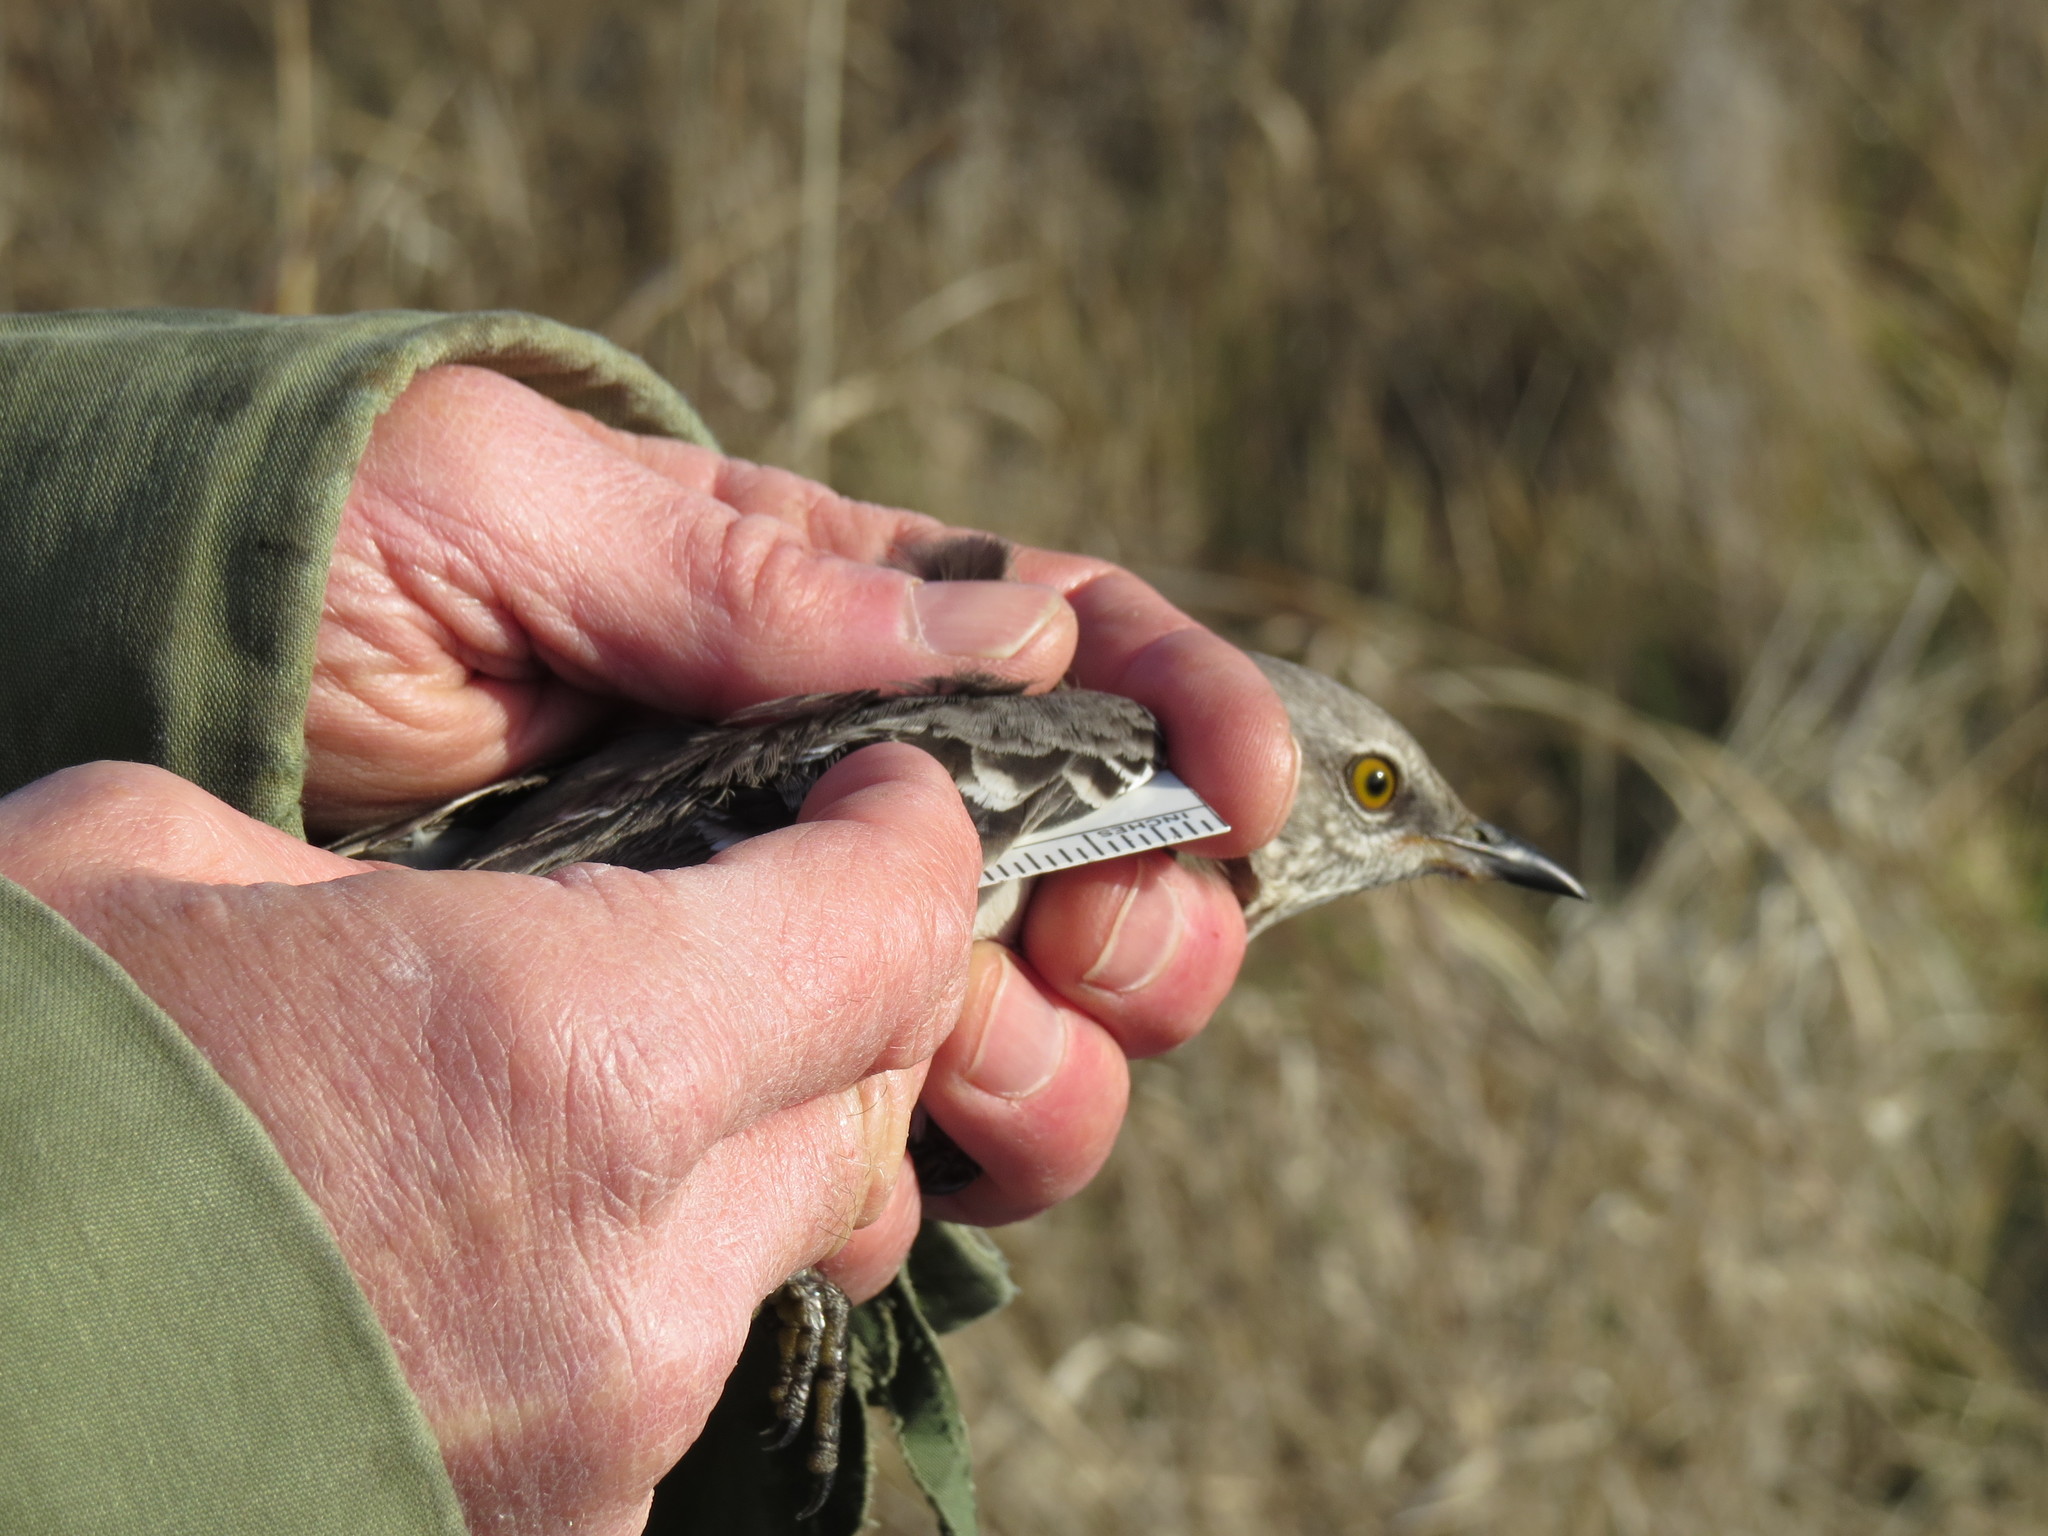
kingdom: Animalia
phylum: Chordata
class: Aves
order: Passeriformes
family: Mimidae
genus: Mimus
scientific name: Mimus polyglottos
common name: Northern mockingbird
